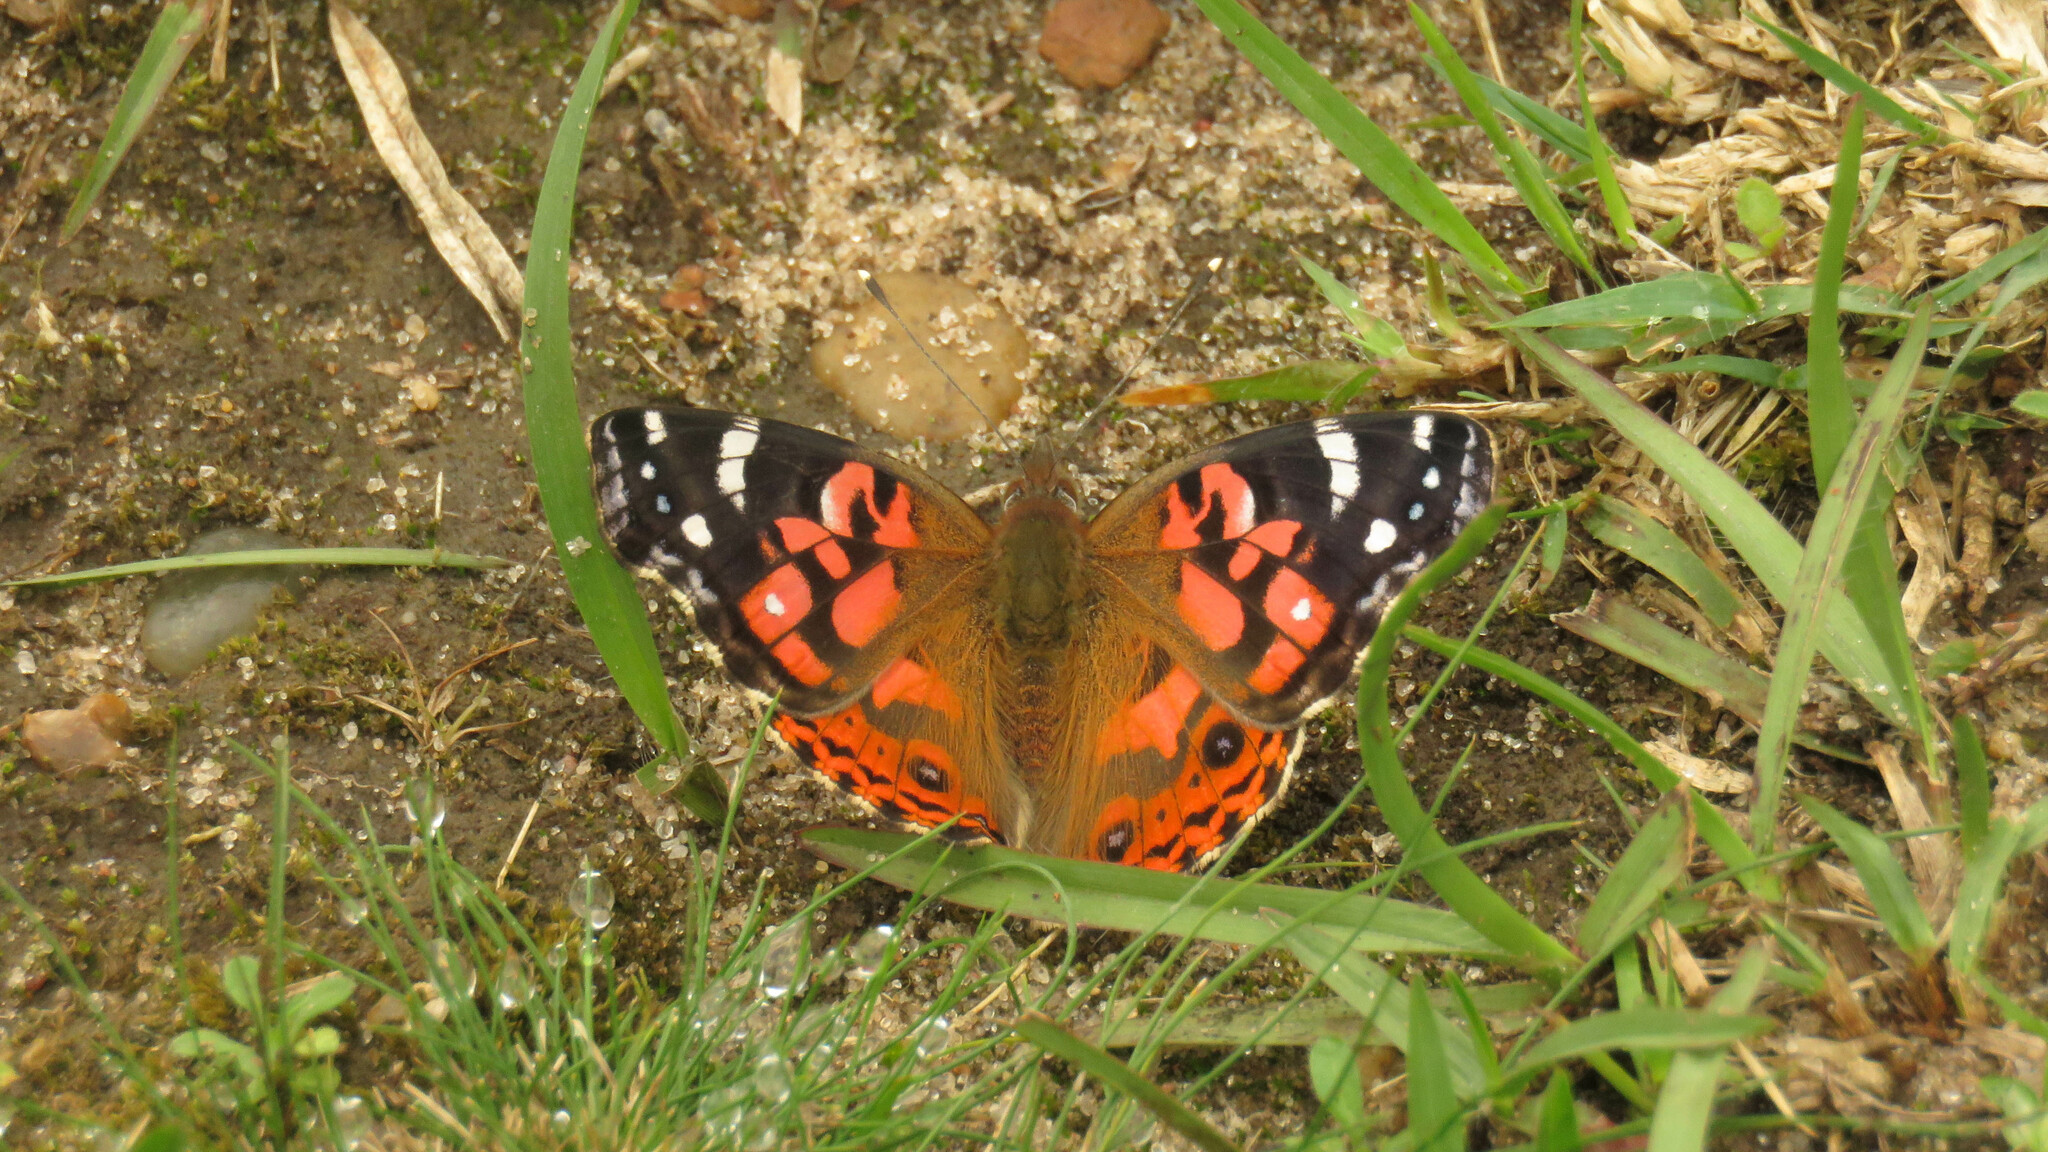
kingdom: Animalia
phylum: Arthropoda
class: Insecta
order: Lepidoptera
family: Nymphalidae
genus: Vanessa
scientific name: Vanessa braziliensis
